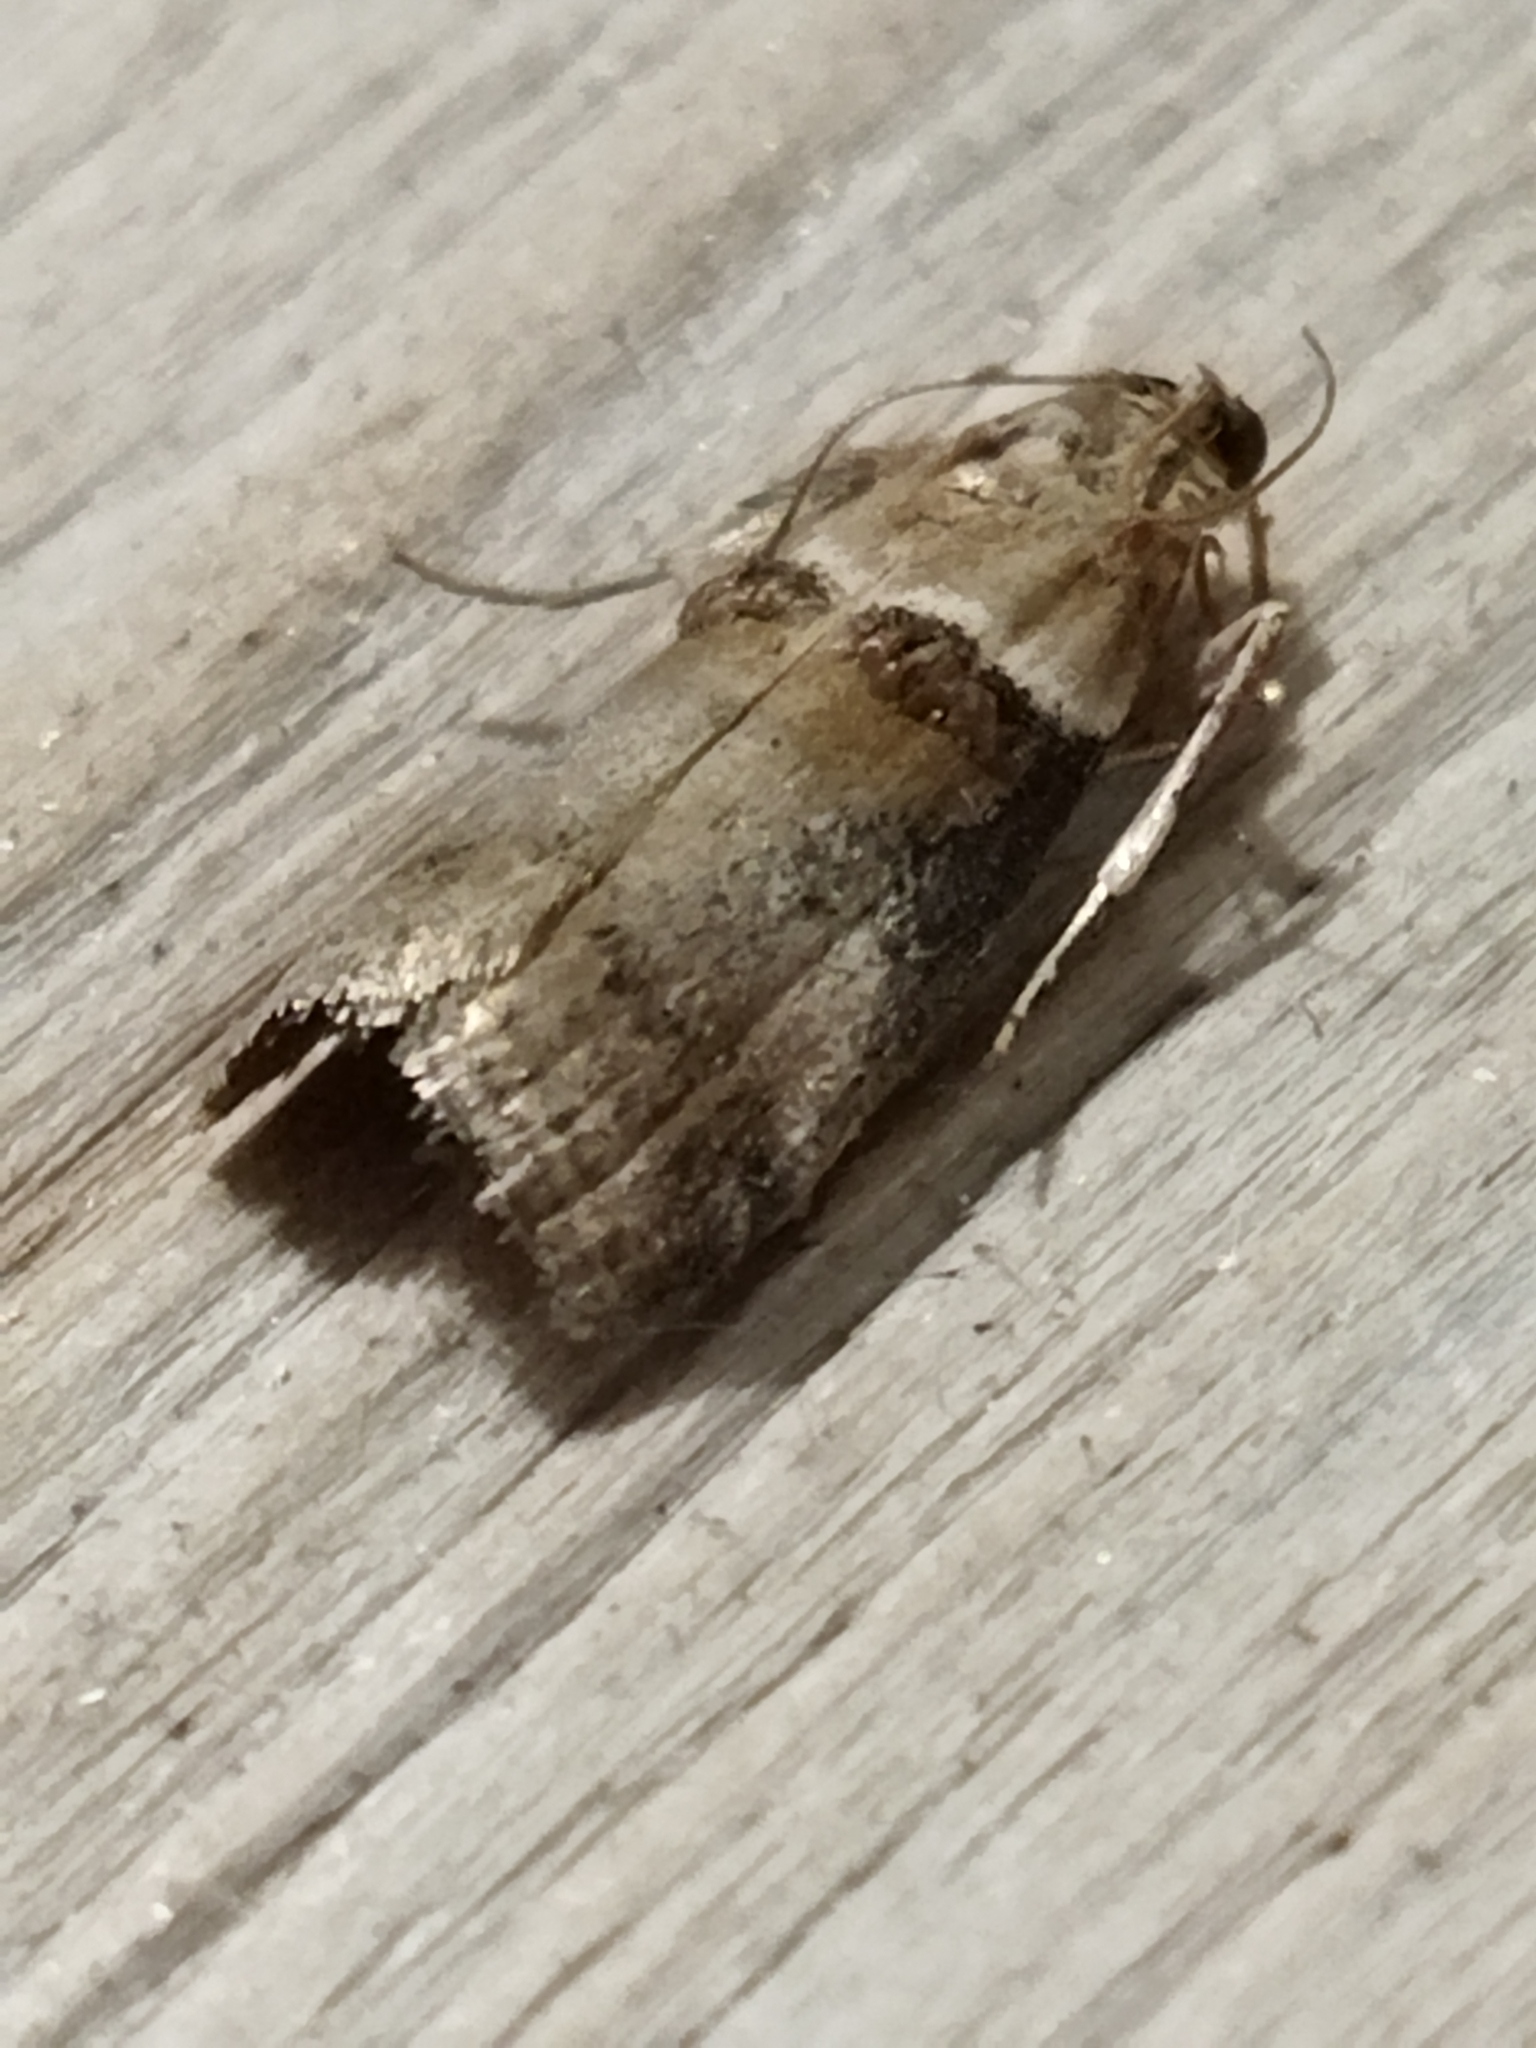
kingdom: Animalia
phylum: Arthropoda
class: Insecta
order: Lepidoptera
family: Pyralidae
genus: Acrobasis
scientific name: Acrobasis tumidana
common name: Scarce oak knot-horn
